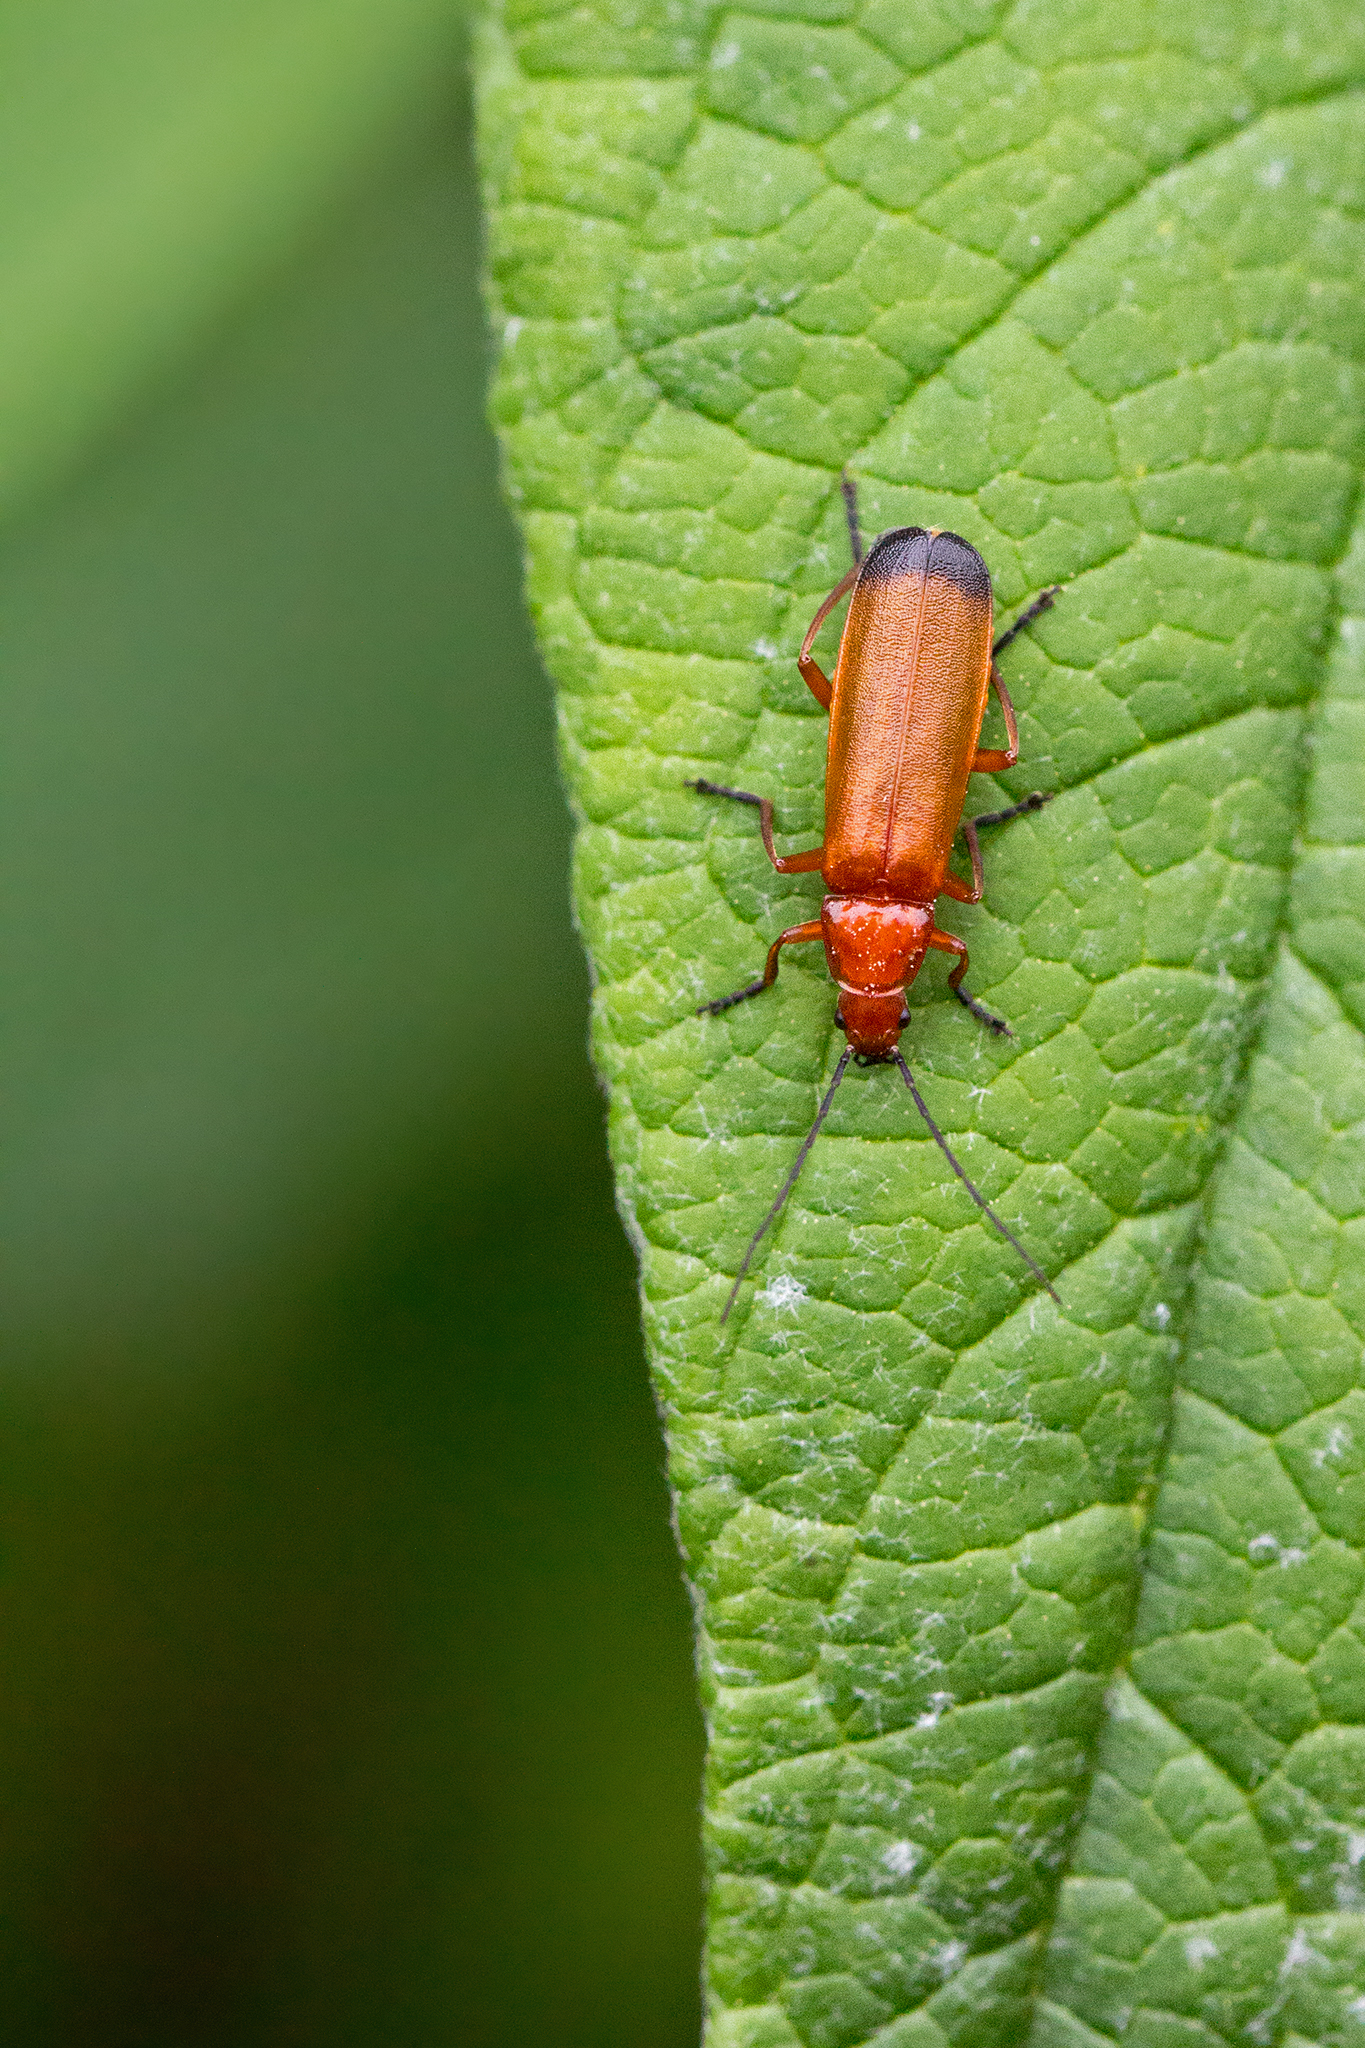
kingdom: Animalia
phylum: Arthropoda
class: Insecta
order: Coleoptera
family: Cantharidae
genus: Rhagonycha
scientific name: Rhagonycha fulva
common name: Common red soldier beetle
